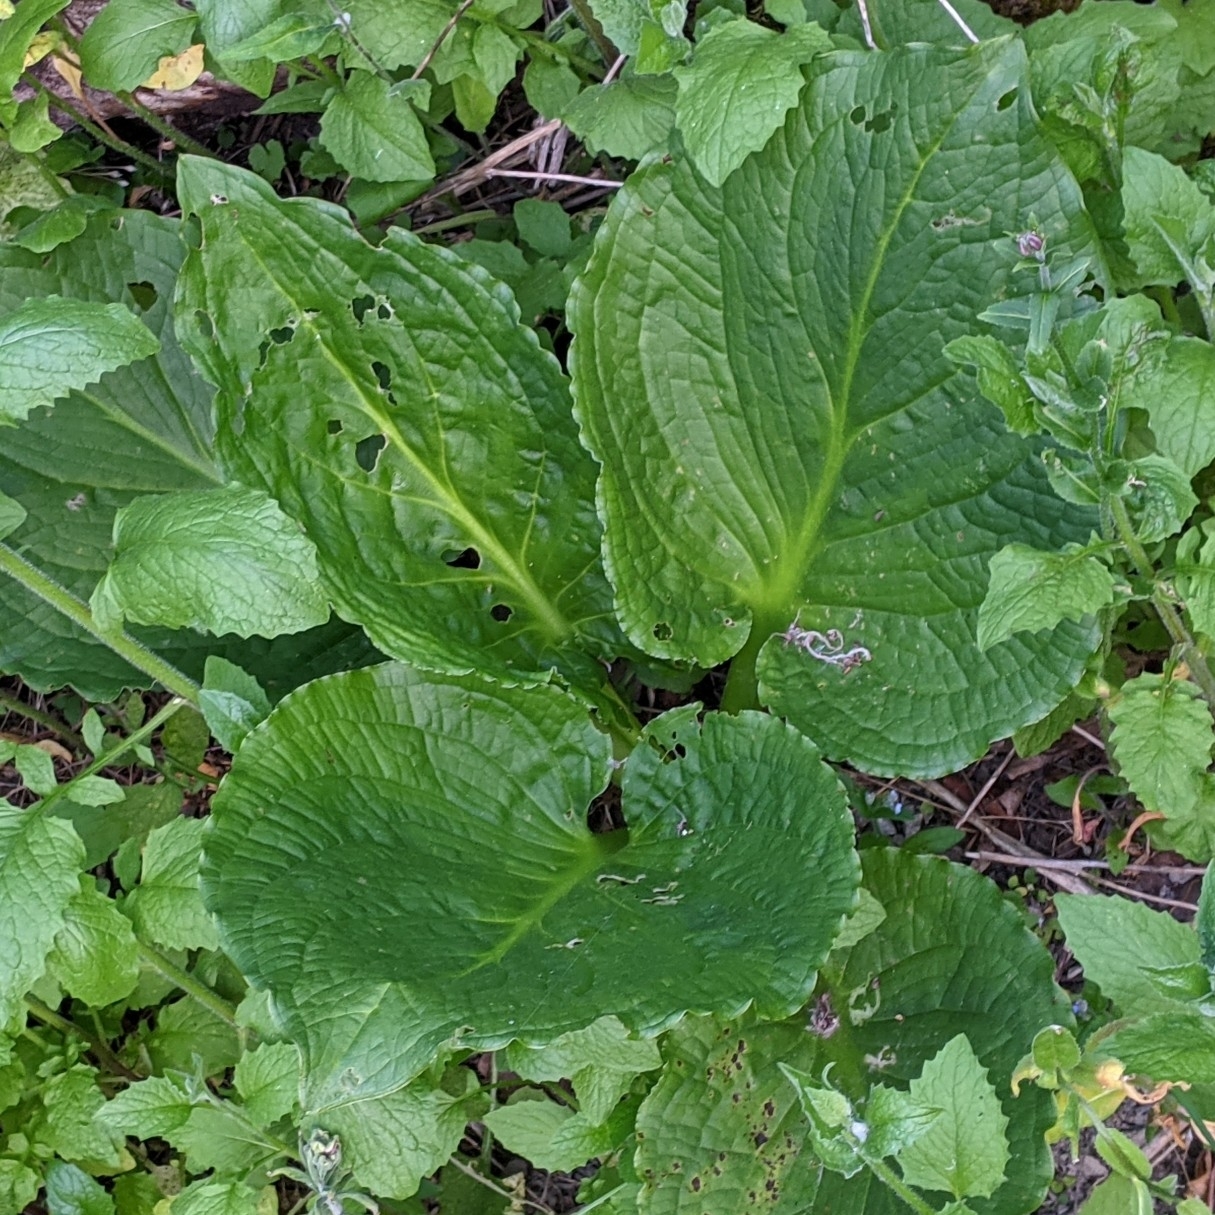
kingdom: Plantae
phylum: Tracheophyta
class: Liliopsida
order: Alismatales
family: Araceae
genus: Symplocarpus
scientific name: Symplocarpus foetidus
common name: Eastern skunk cabbage
